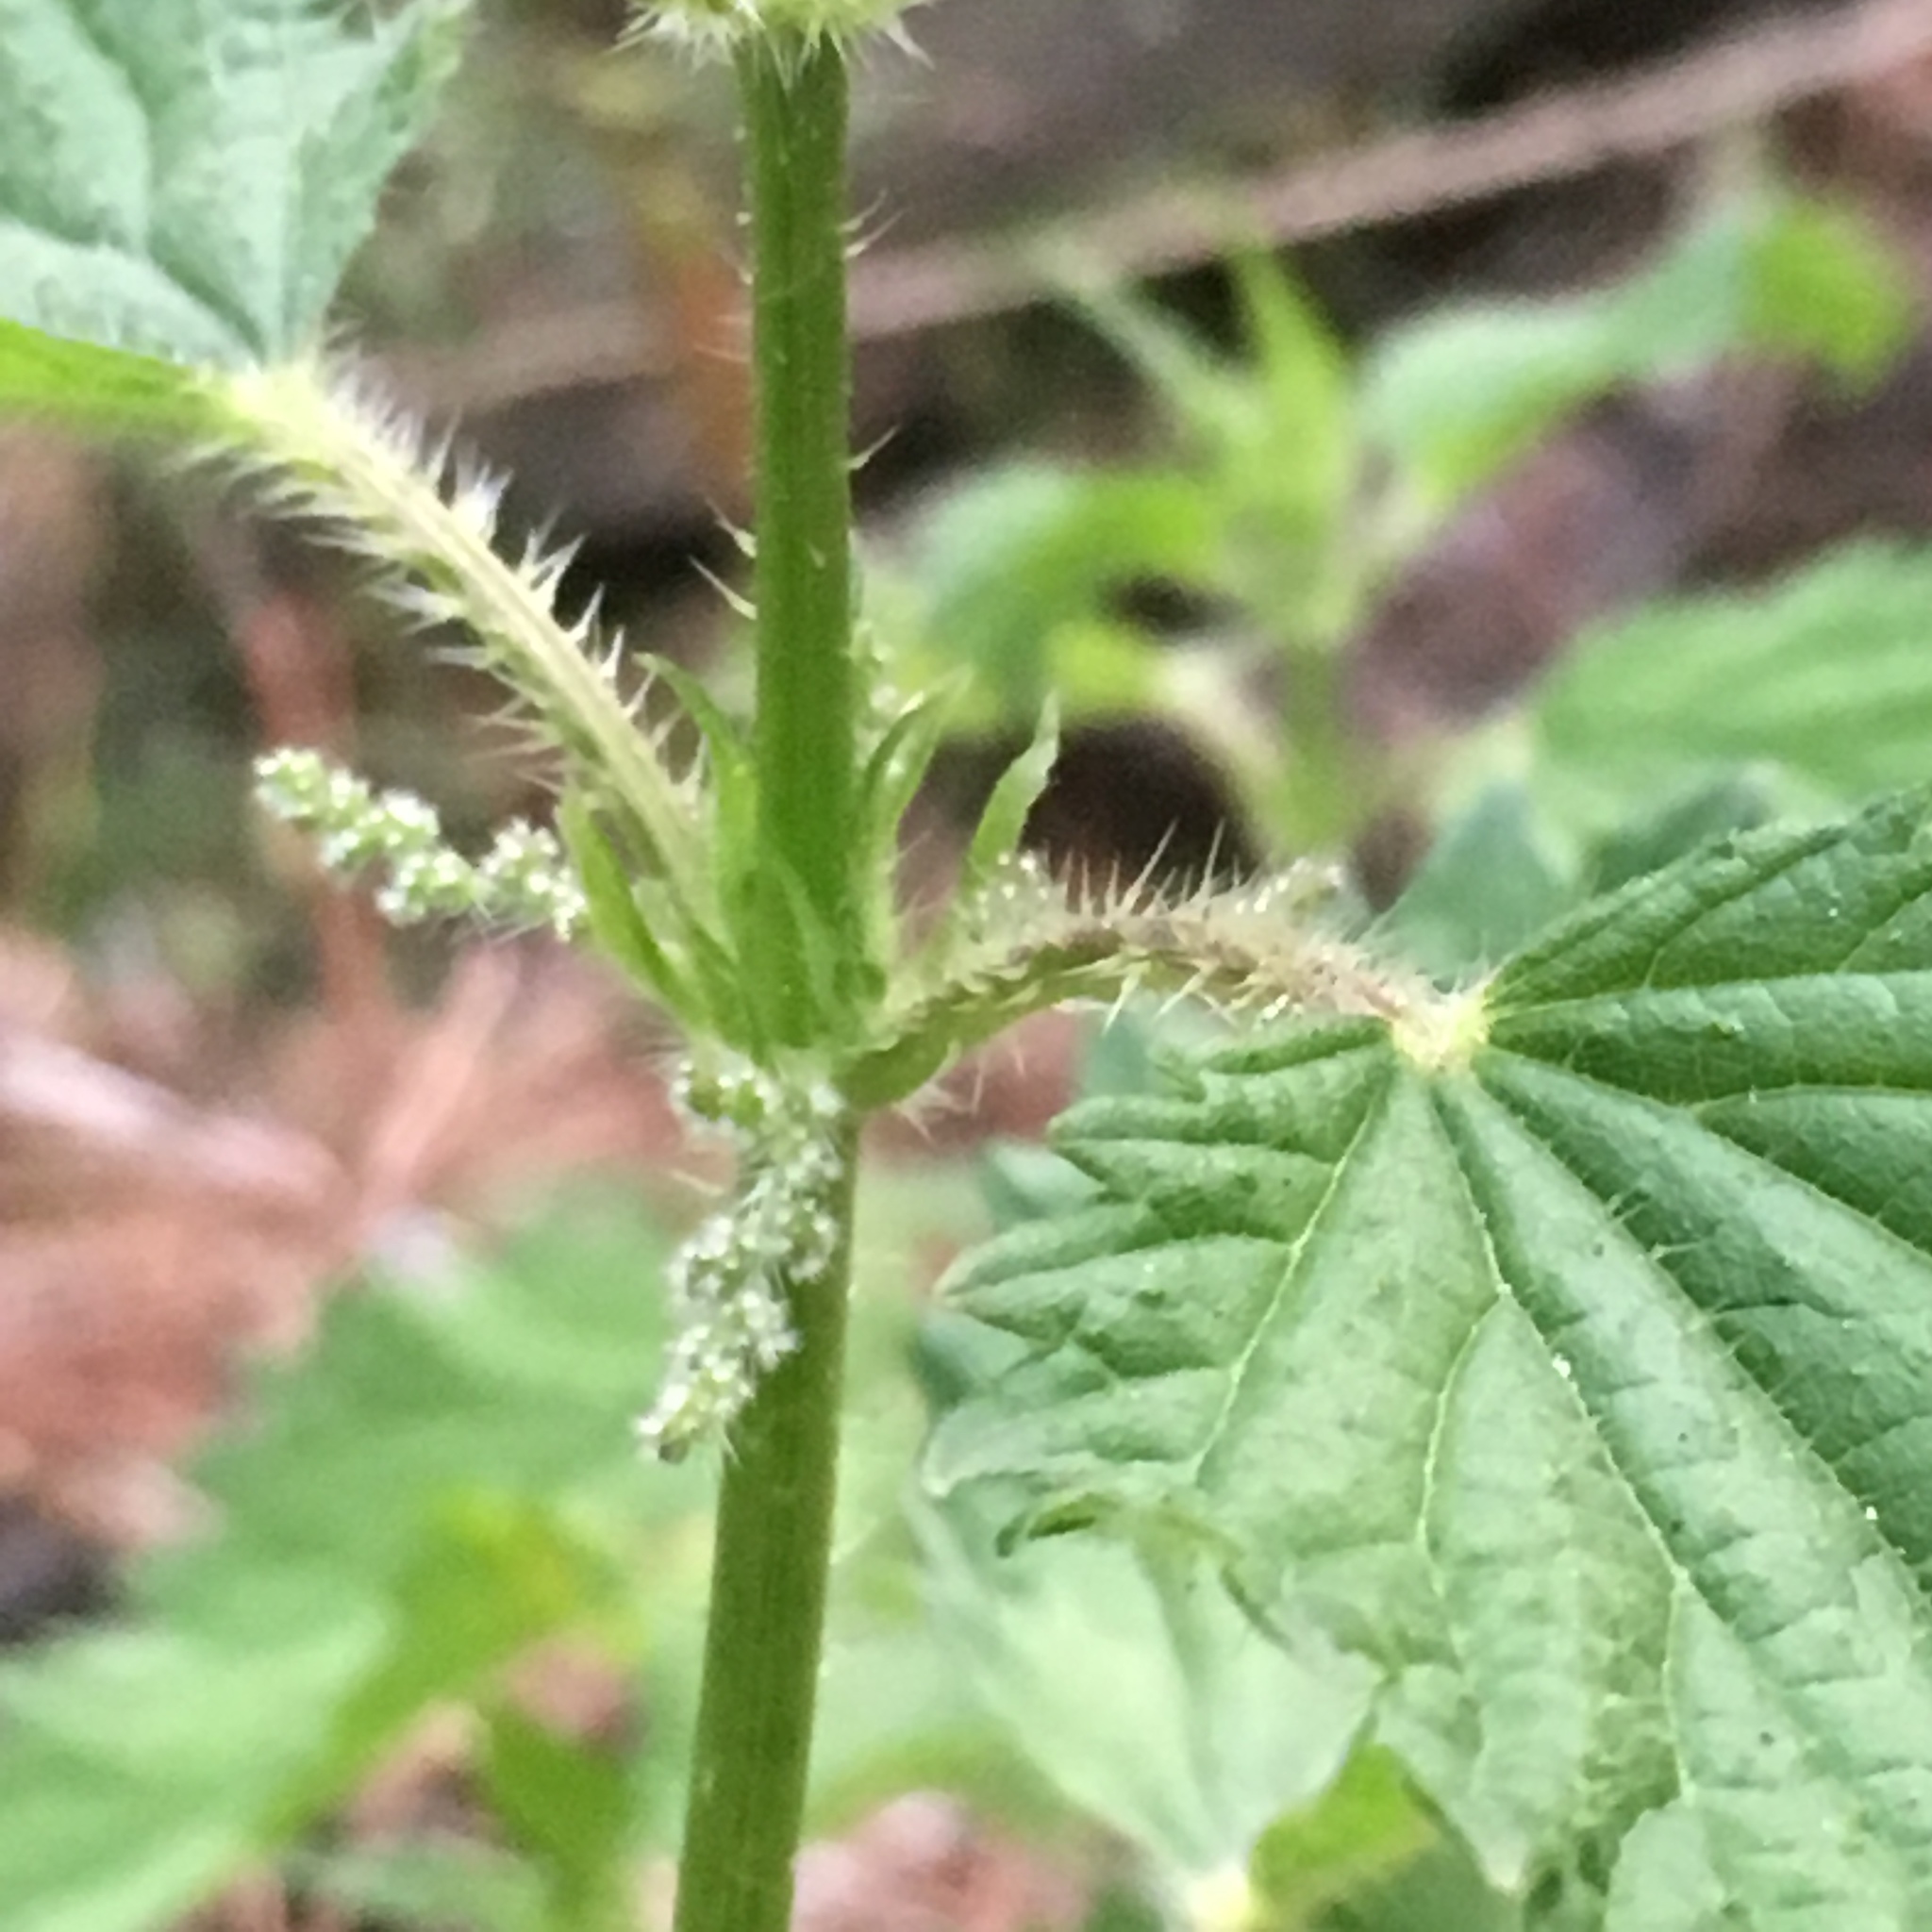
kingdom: Plantae
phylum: Tracheophyta
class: Magnoliopsida
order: Rosales
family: Urticaceae
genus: Urtica
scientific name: Urtica dioica
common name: Common nettle
